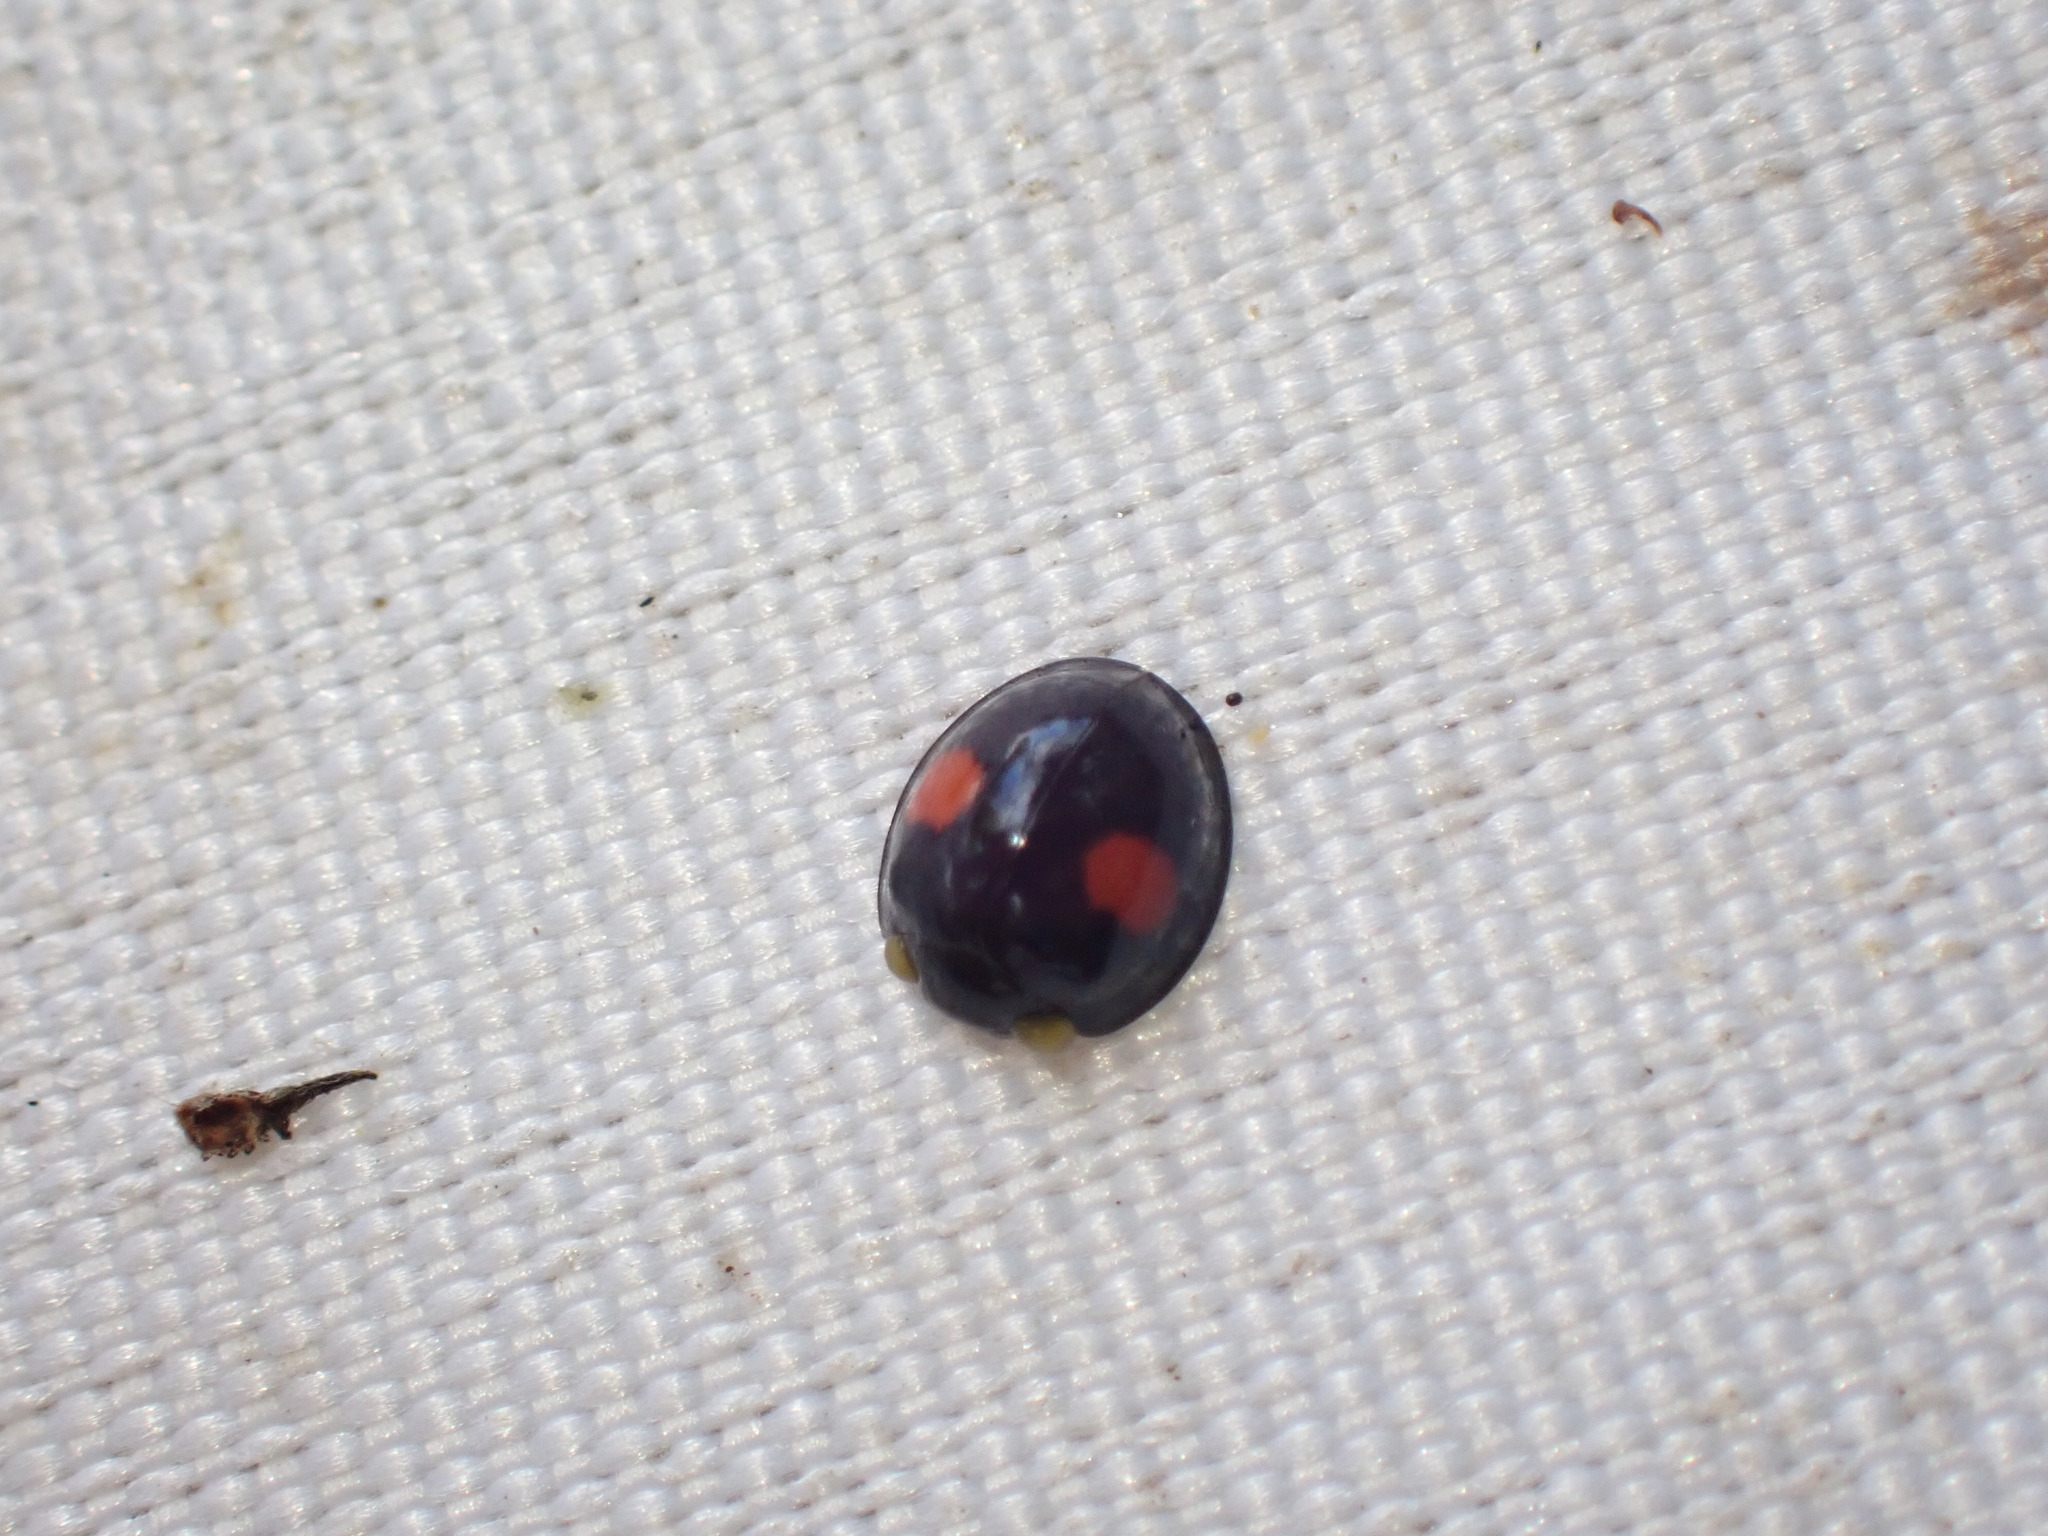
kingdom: Animalia
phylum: Arthropoda
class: Insecta
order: Coleoptera
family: Coccinellidae
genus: Chilocorus
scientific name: Chilocorus renipustulatus
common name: Kidney-spot ladybird
